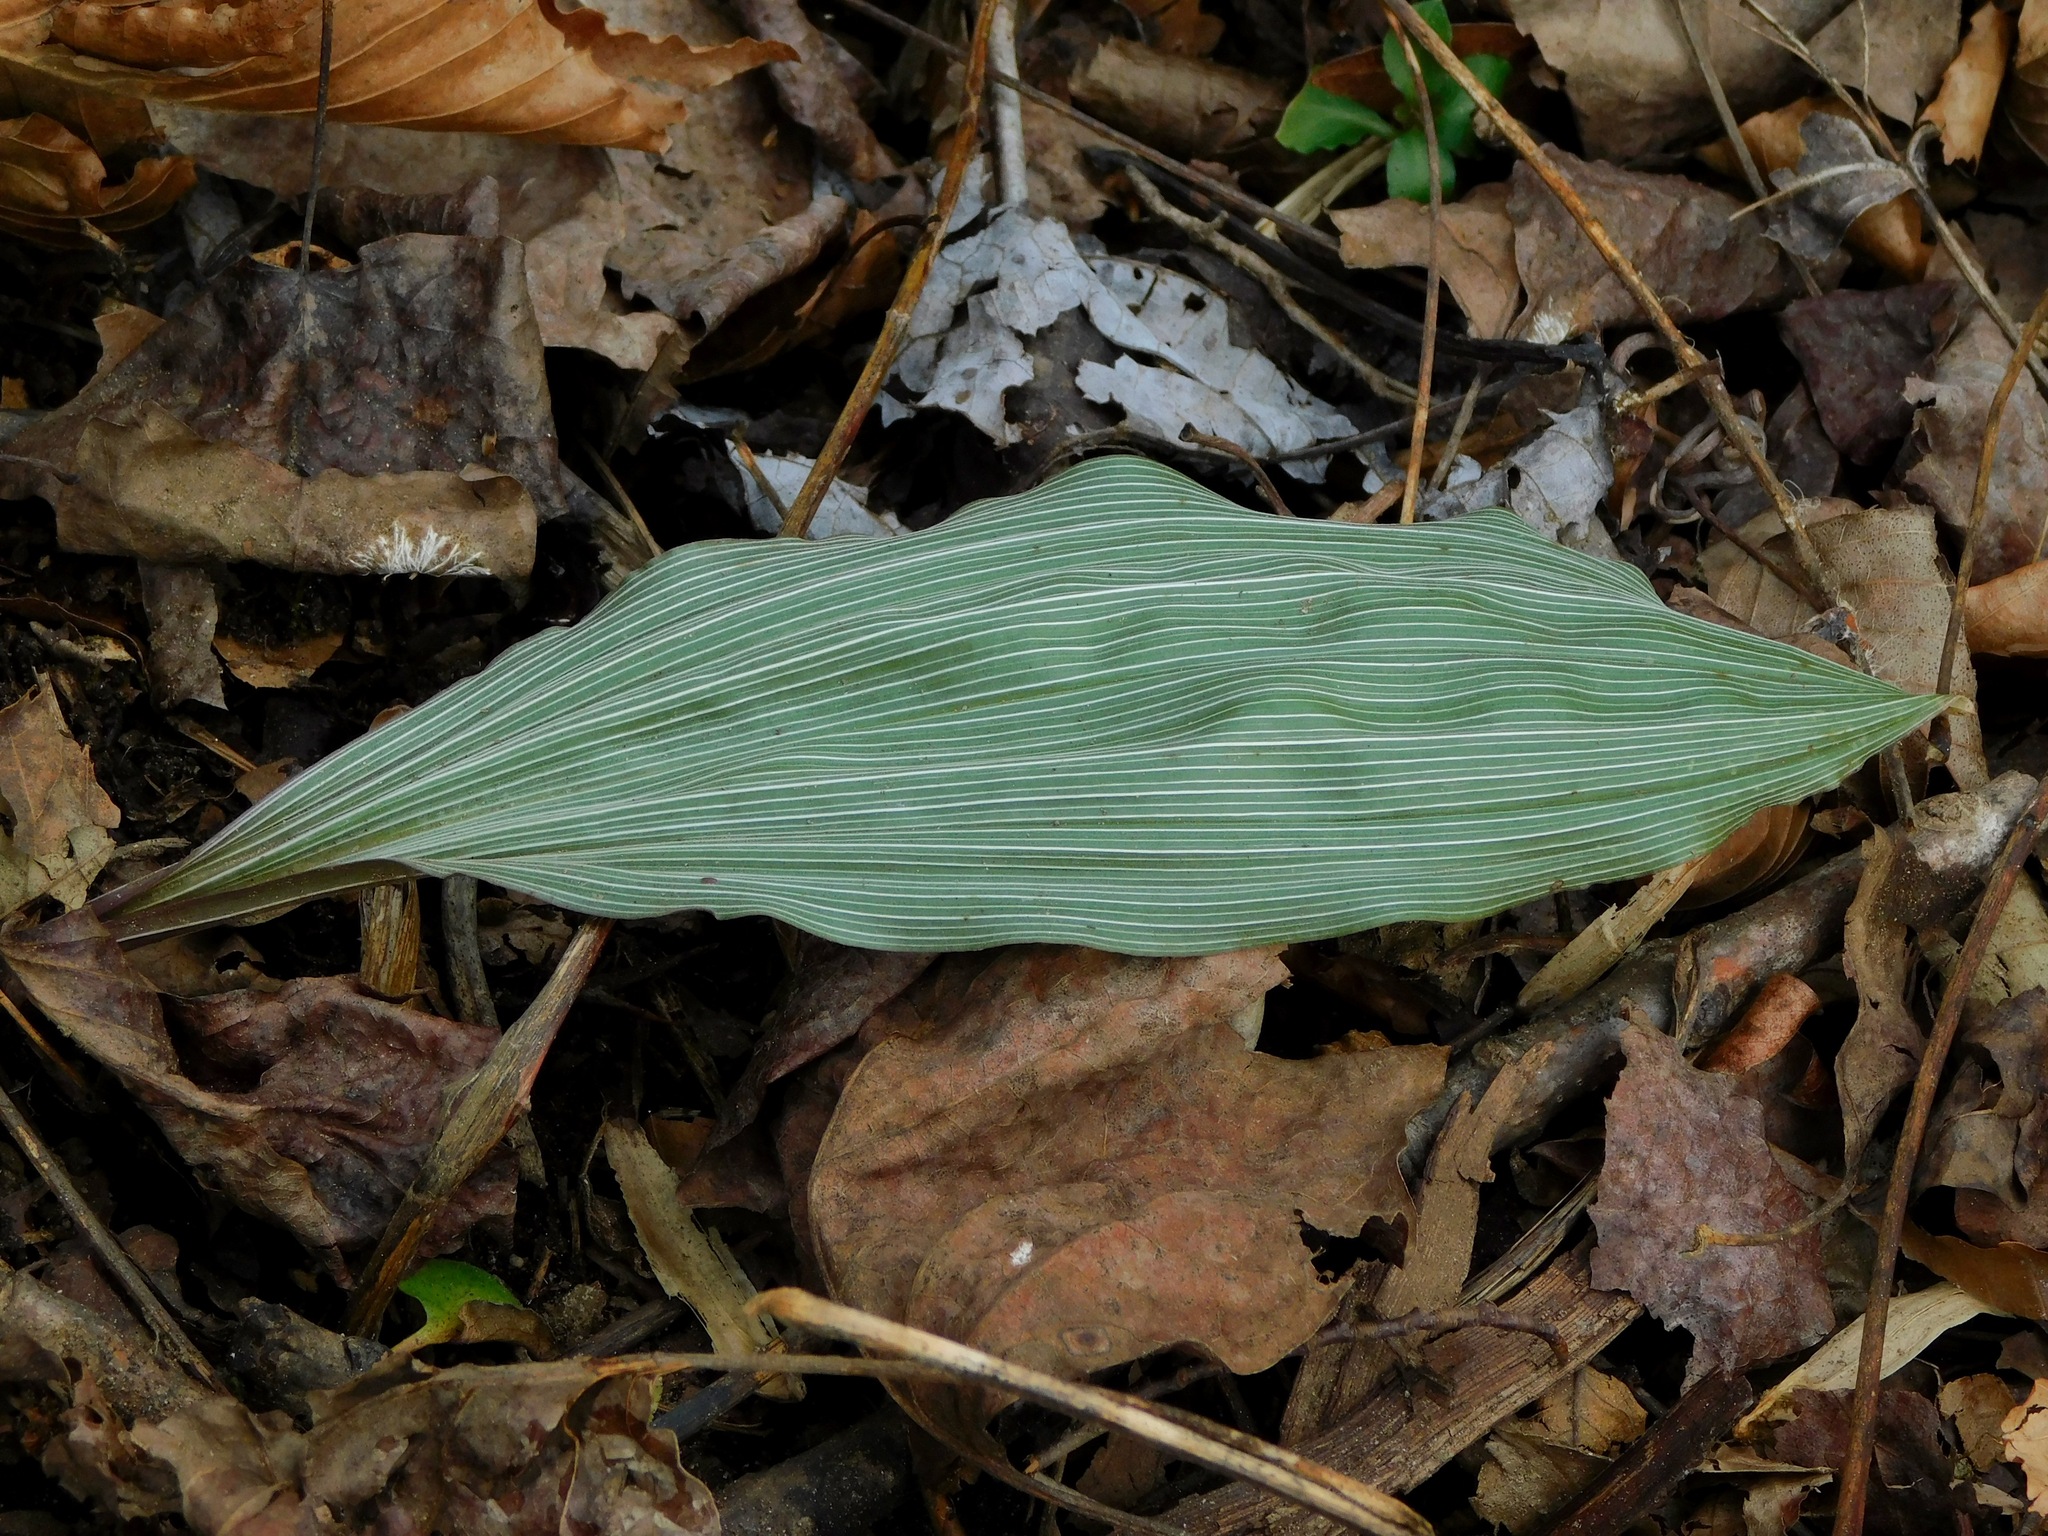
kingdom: Plantae
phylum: Tracheophyta
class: Liliopsida
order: Asparagales
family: Orchidaceae
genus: Aplectrum
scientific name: Aplectrum hyemale
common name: Adam-and-eve
